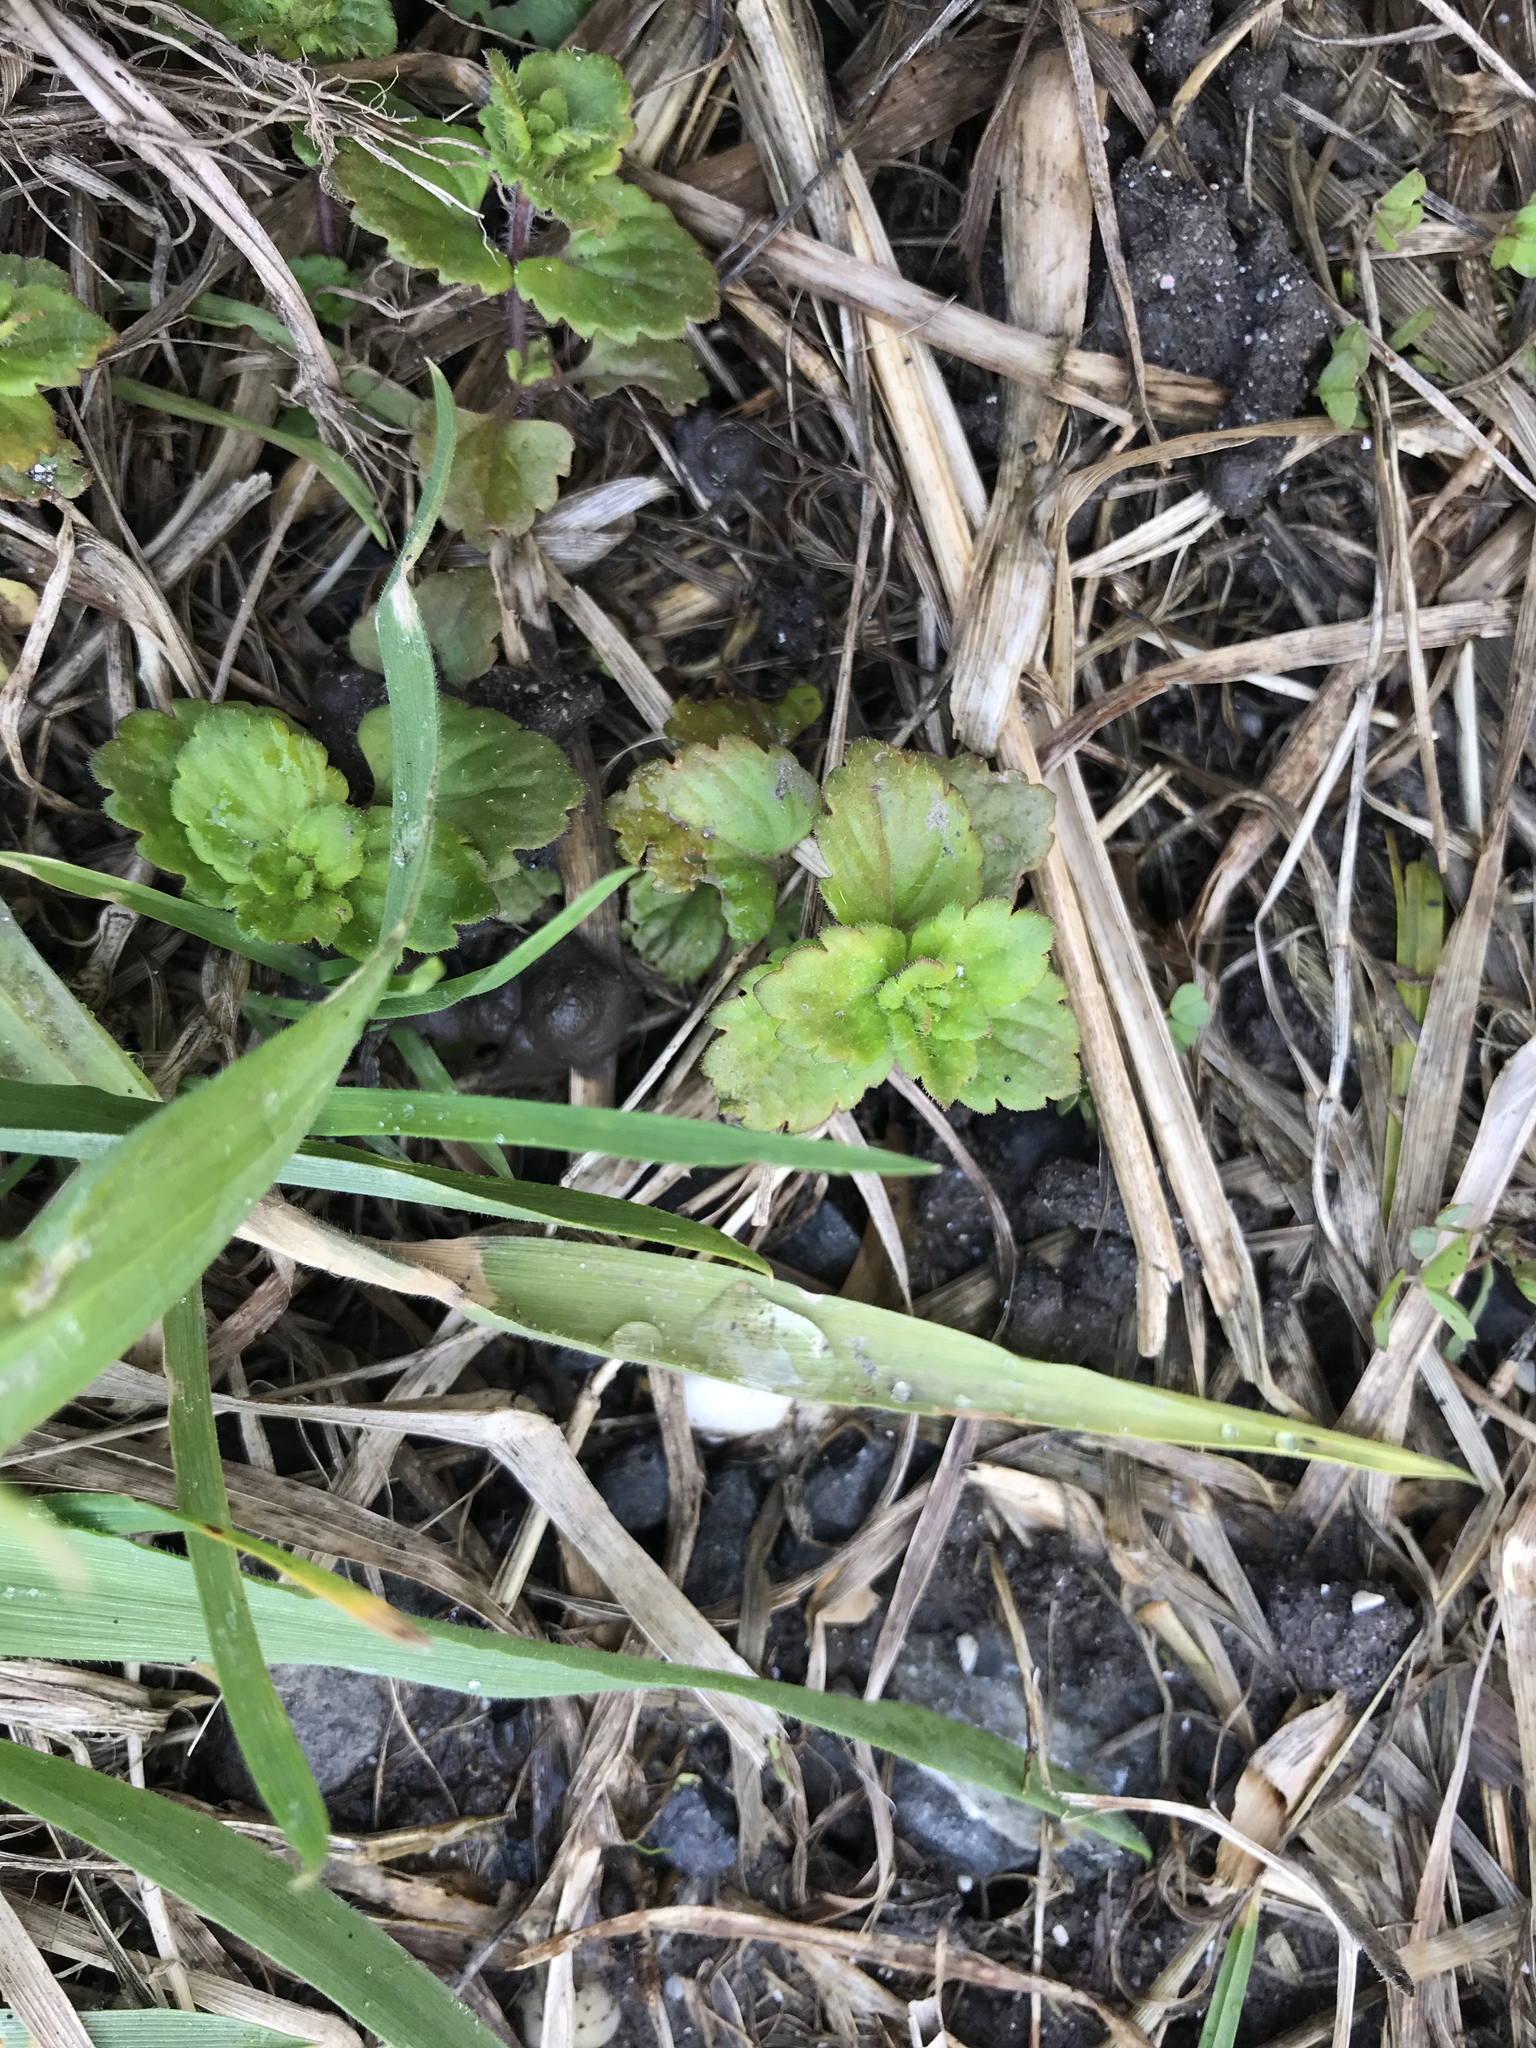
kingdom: Plantae
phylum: Tracheophyta
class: Magnoliopsida
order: Lamiales
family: Plantaginaceae
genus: Veronica
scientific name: Veronica persica
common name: Common field-speedwell
